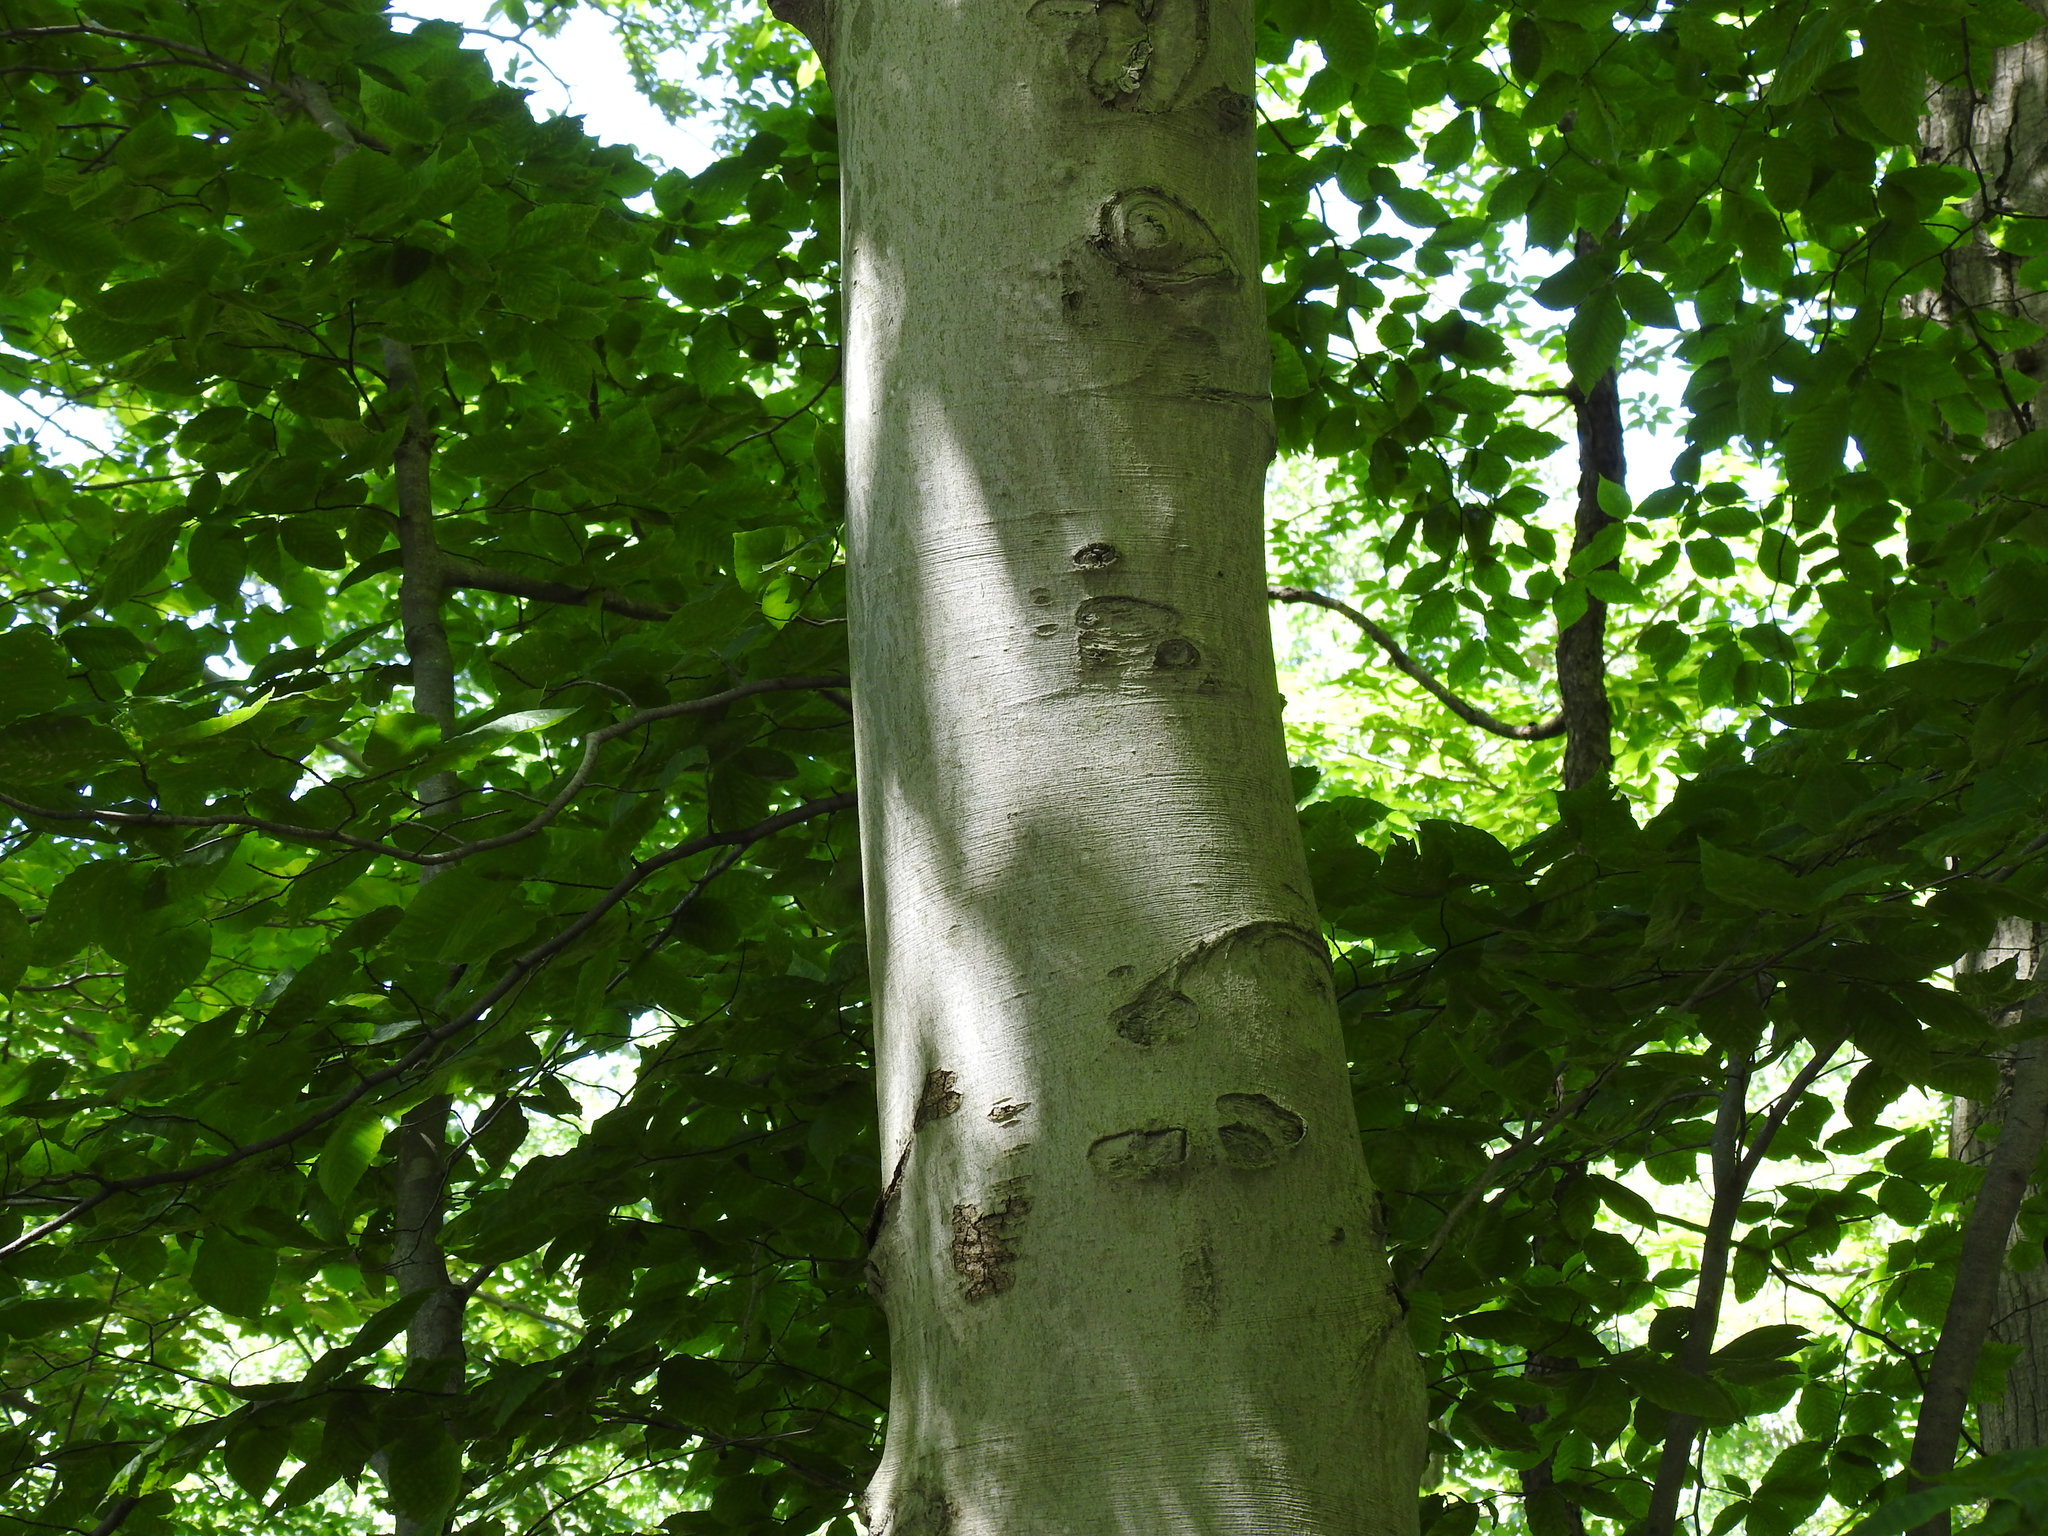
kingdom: Plantae
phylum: Tracheophyta
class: Magnoliopsida
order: Fagales
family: Fagaceae
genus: Fagus
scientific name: Fagus grandifolia
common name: American beech
